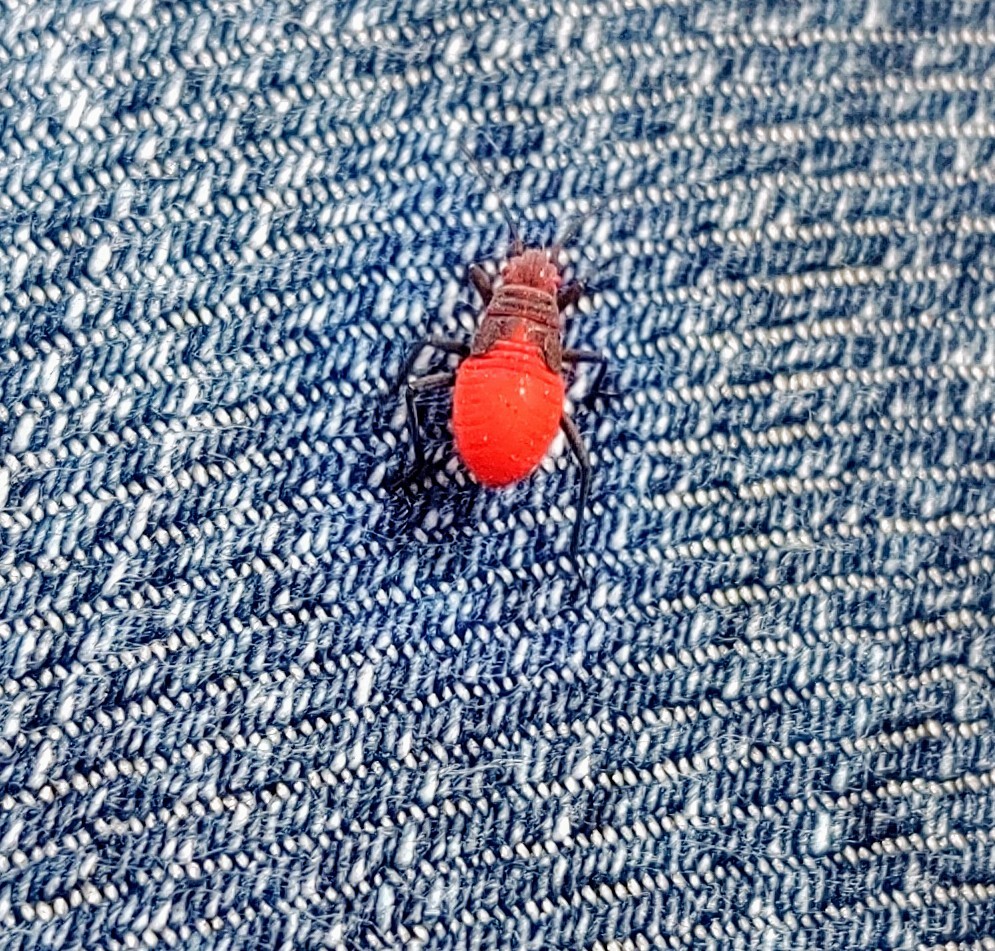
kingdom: Animalia
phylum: Arthropoda
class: Insecta
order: Hemiptera
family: Rhopalidae
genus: Jadera
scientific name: Jadera haematoloma
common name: Red-shouldered bug
